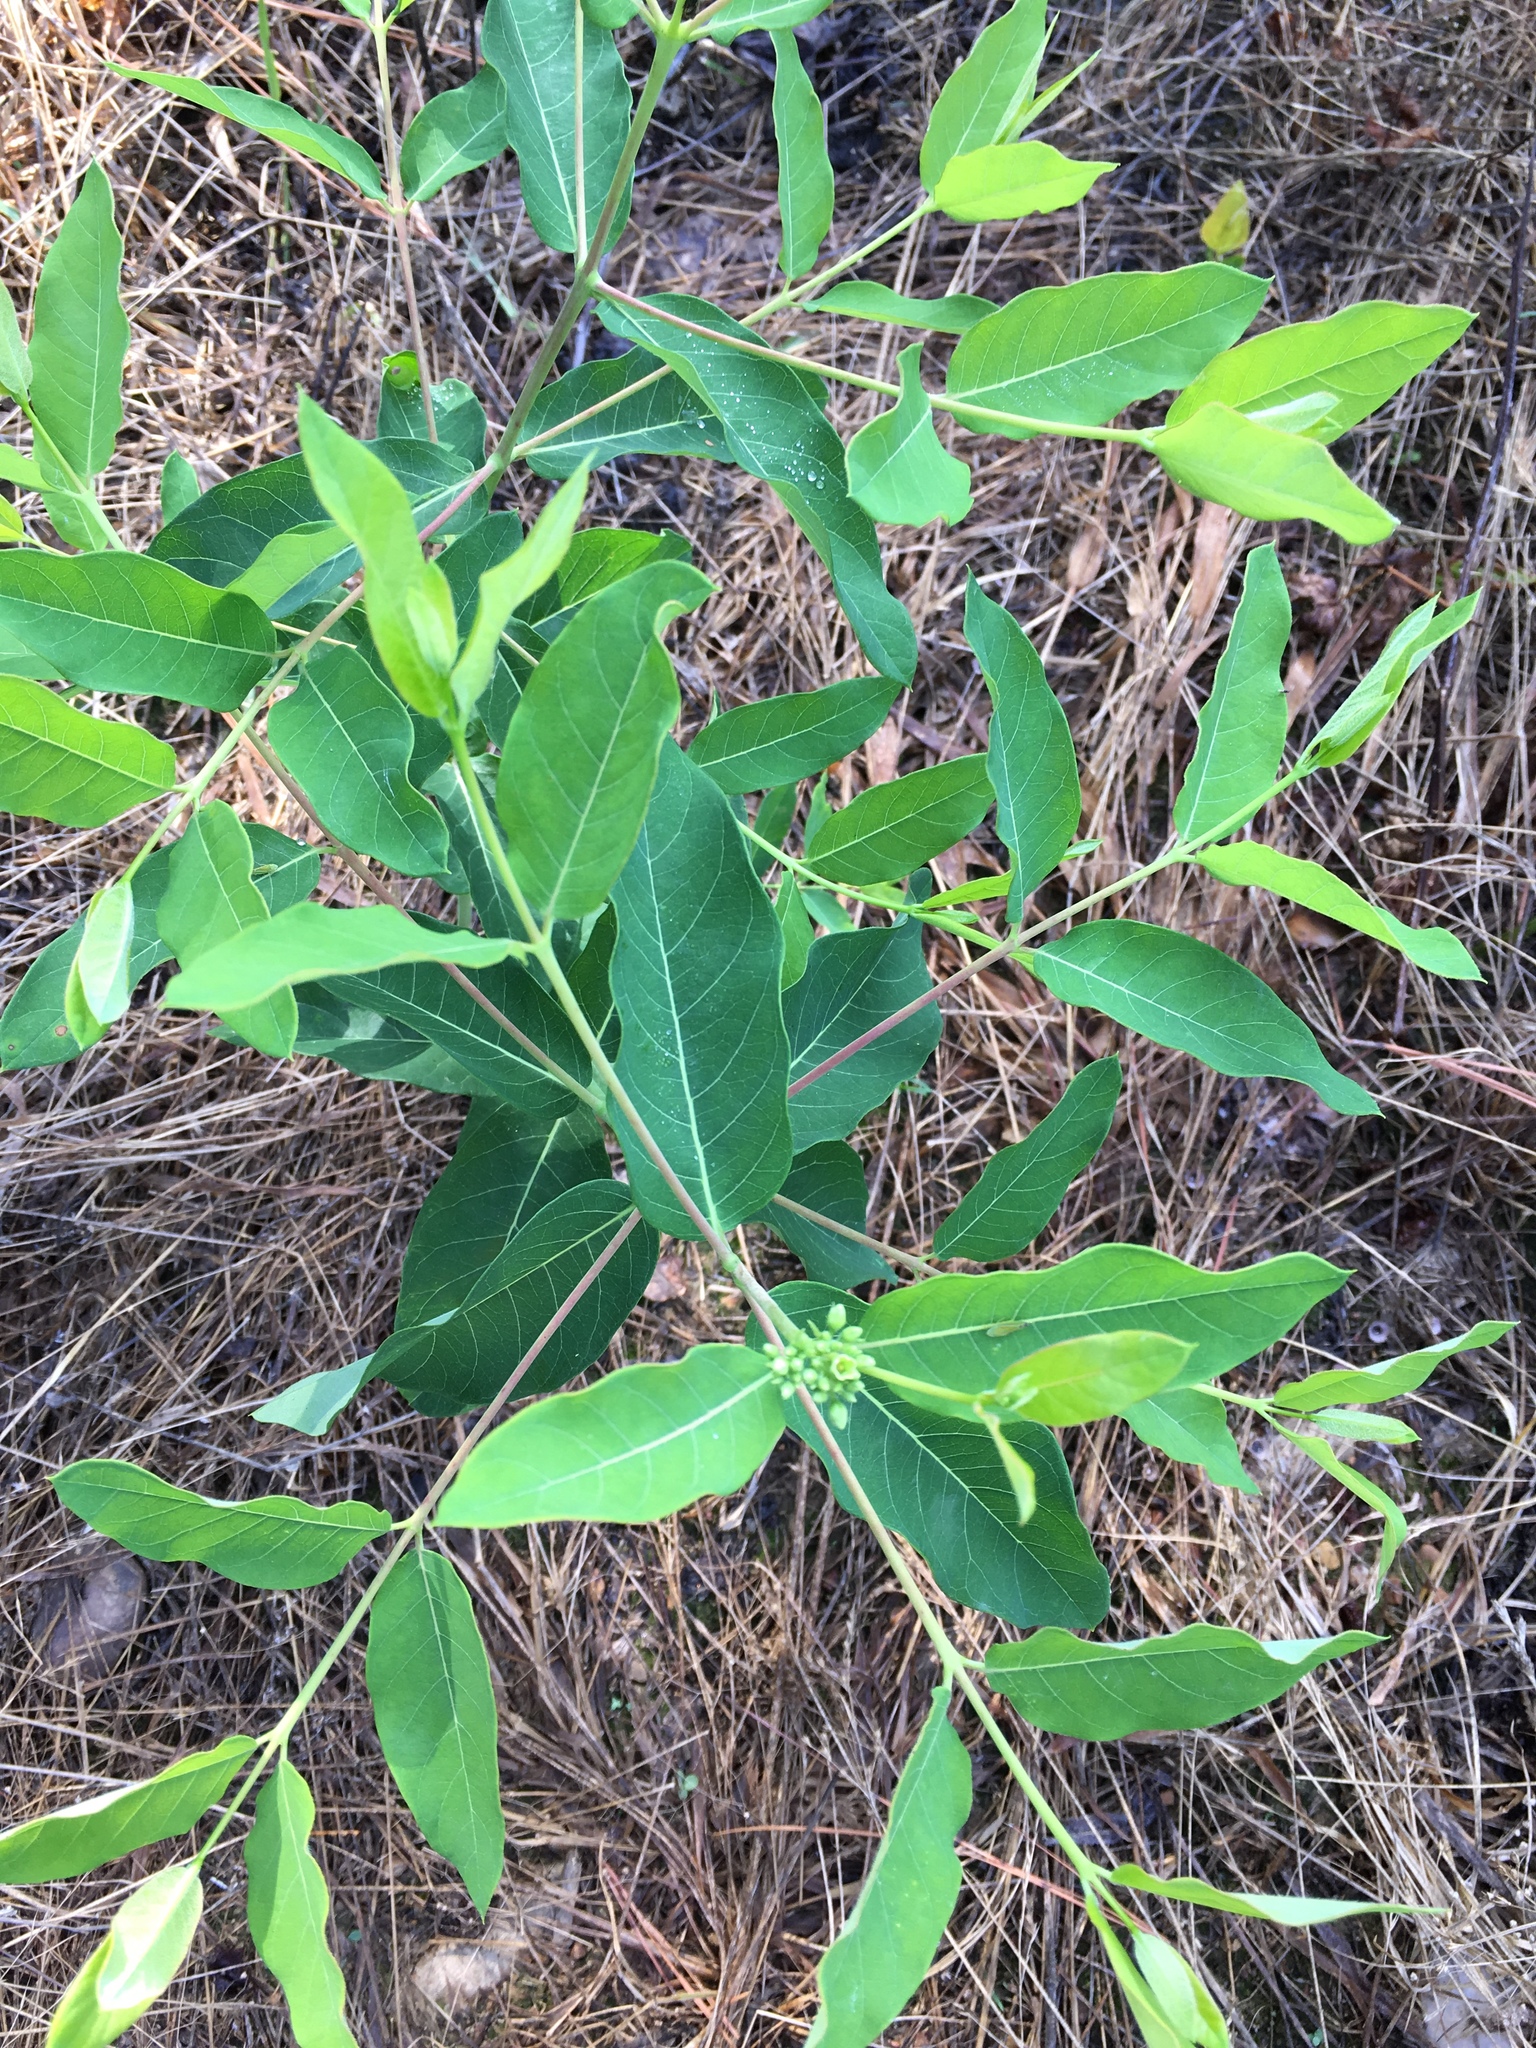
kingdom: Plantae
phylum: Tracheophyta
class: Magnoliopsida
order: Gentianales
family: Apocynaceae
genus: Apocynum
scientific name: Apocynum cannabinum
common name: Hemp dogbane
